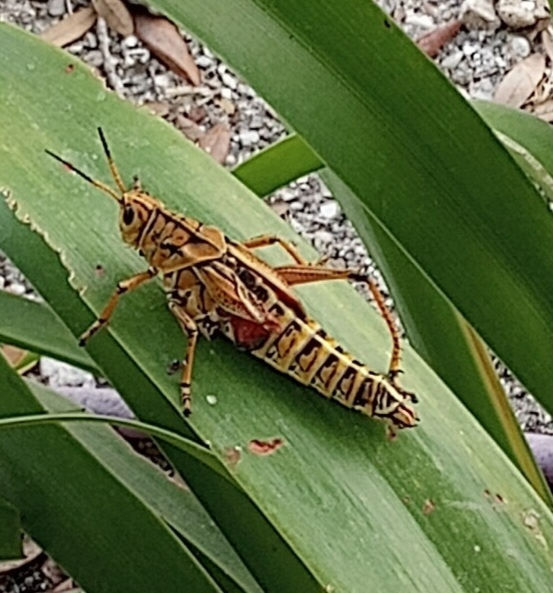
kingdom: Animalia
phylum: Arthropoda
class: Insecta
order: Orthoptera
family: Romaleidae
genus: Romalea
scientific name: Romalea microptera
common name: Eastern lubber grasshopper
